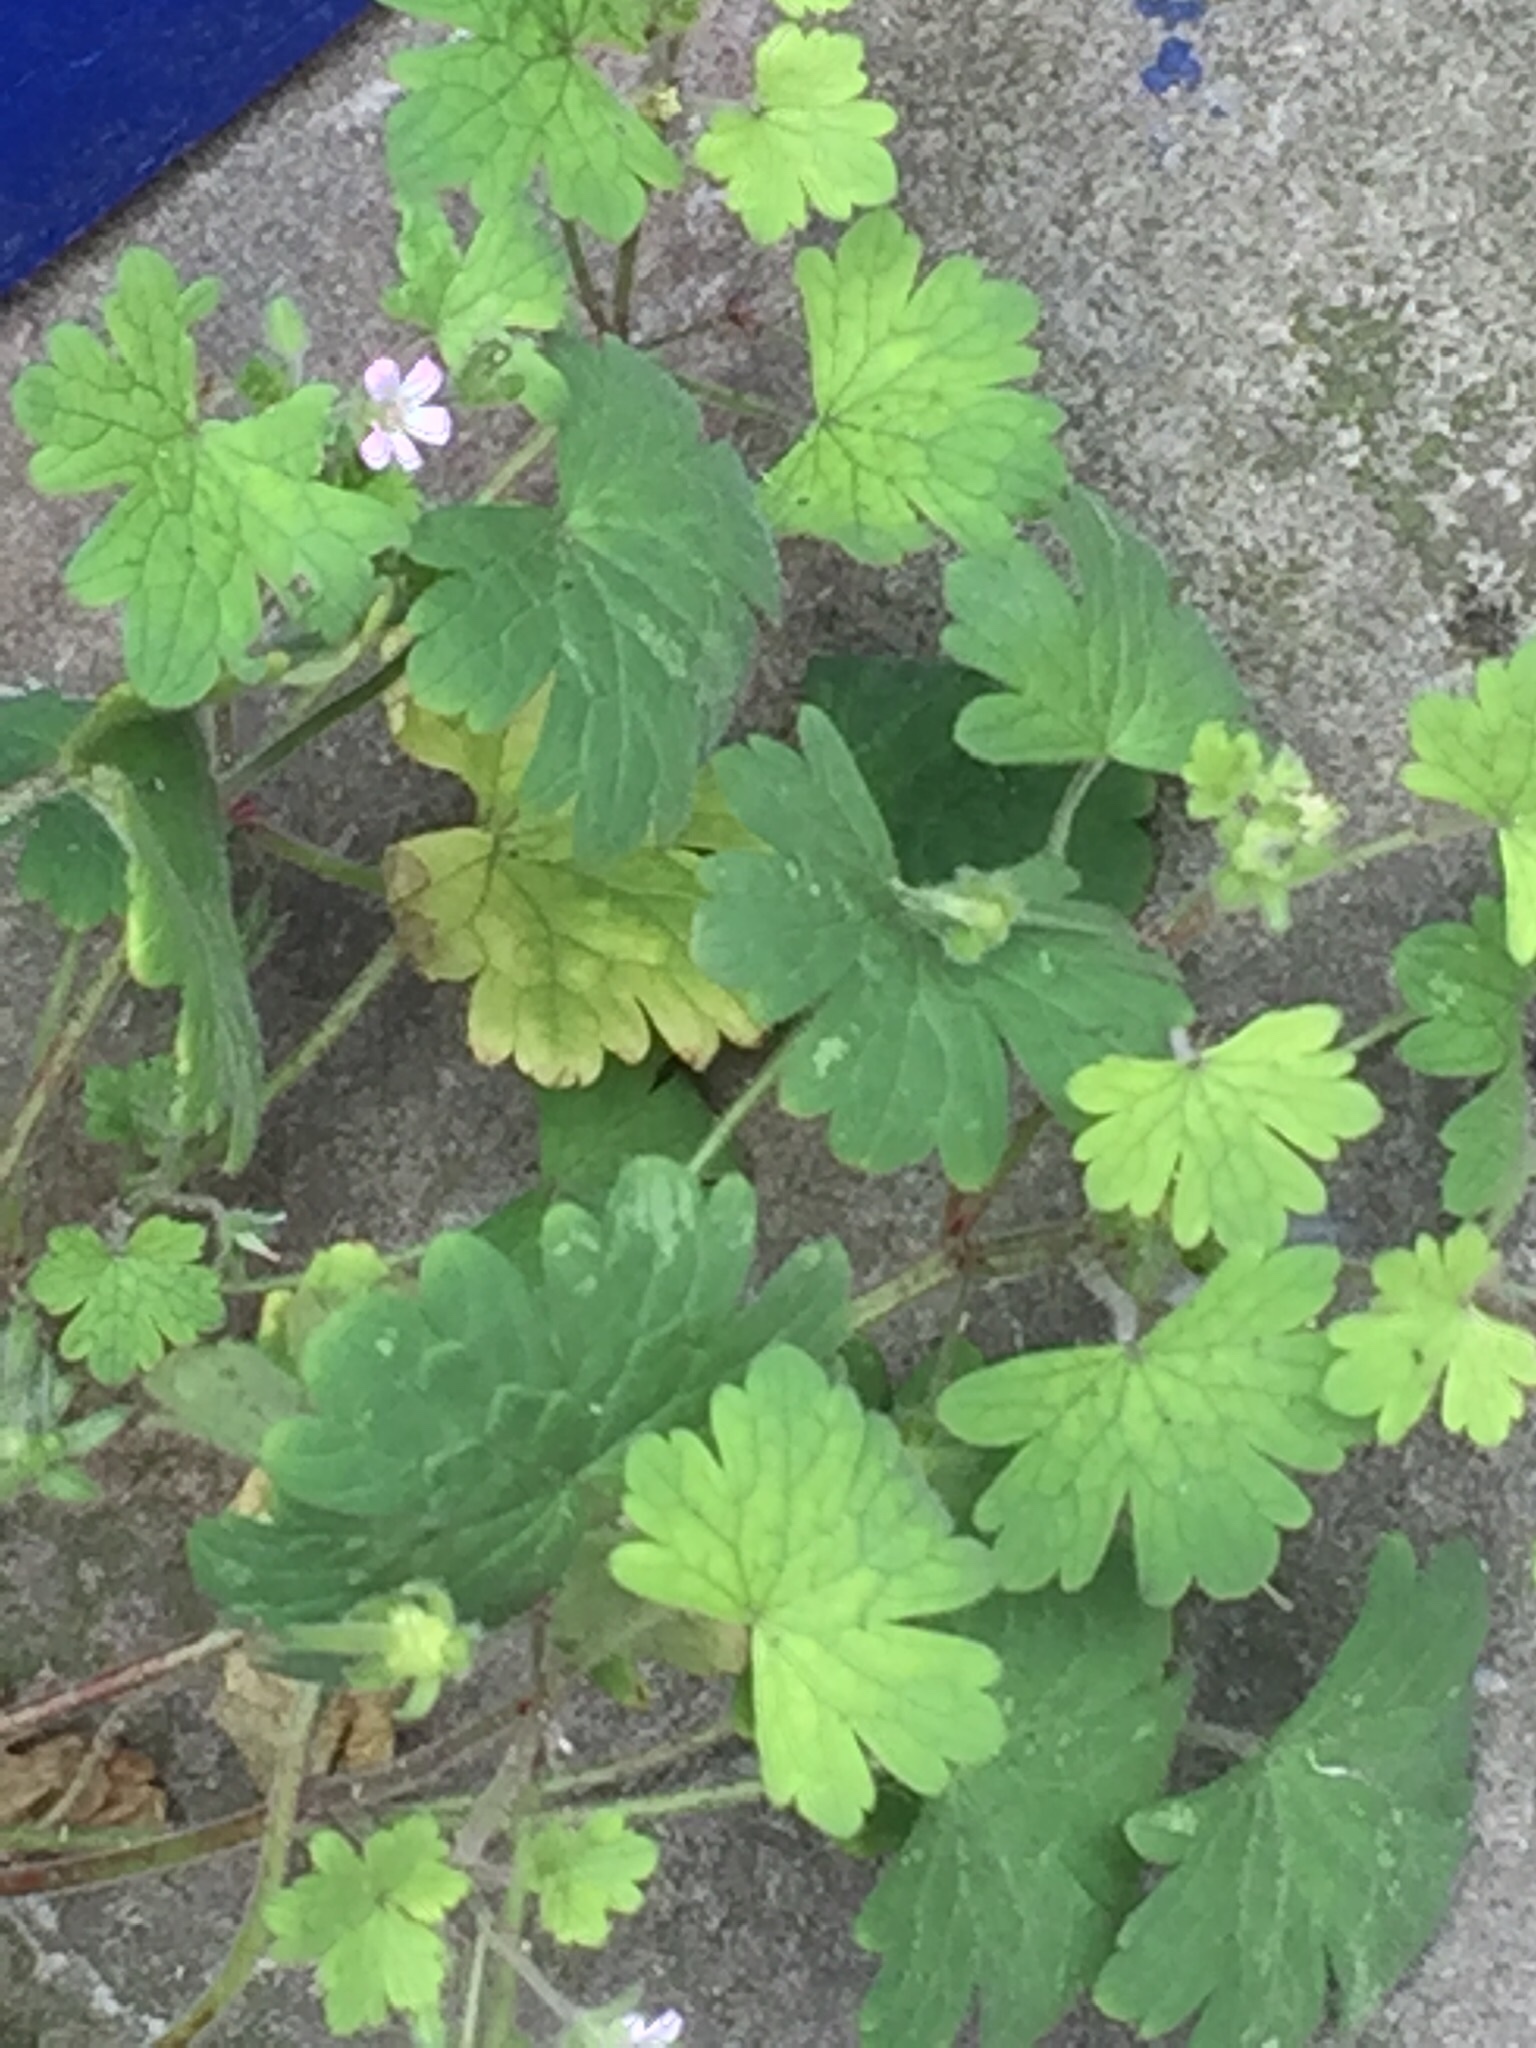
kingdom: Plantae
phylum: Tracheophyta
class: Magnoliopsida
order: Geraniales
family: Geraniaceae
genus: Geranium
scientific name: Geranium rotundifolium
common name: Round-leaved crane's-bill
